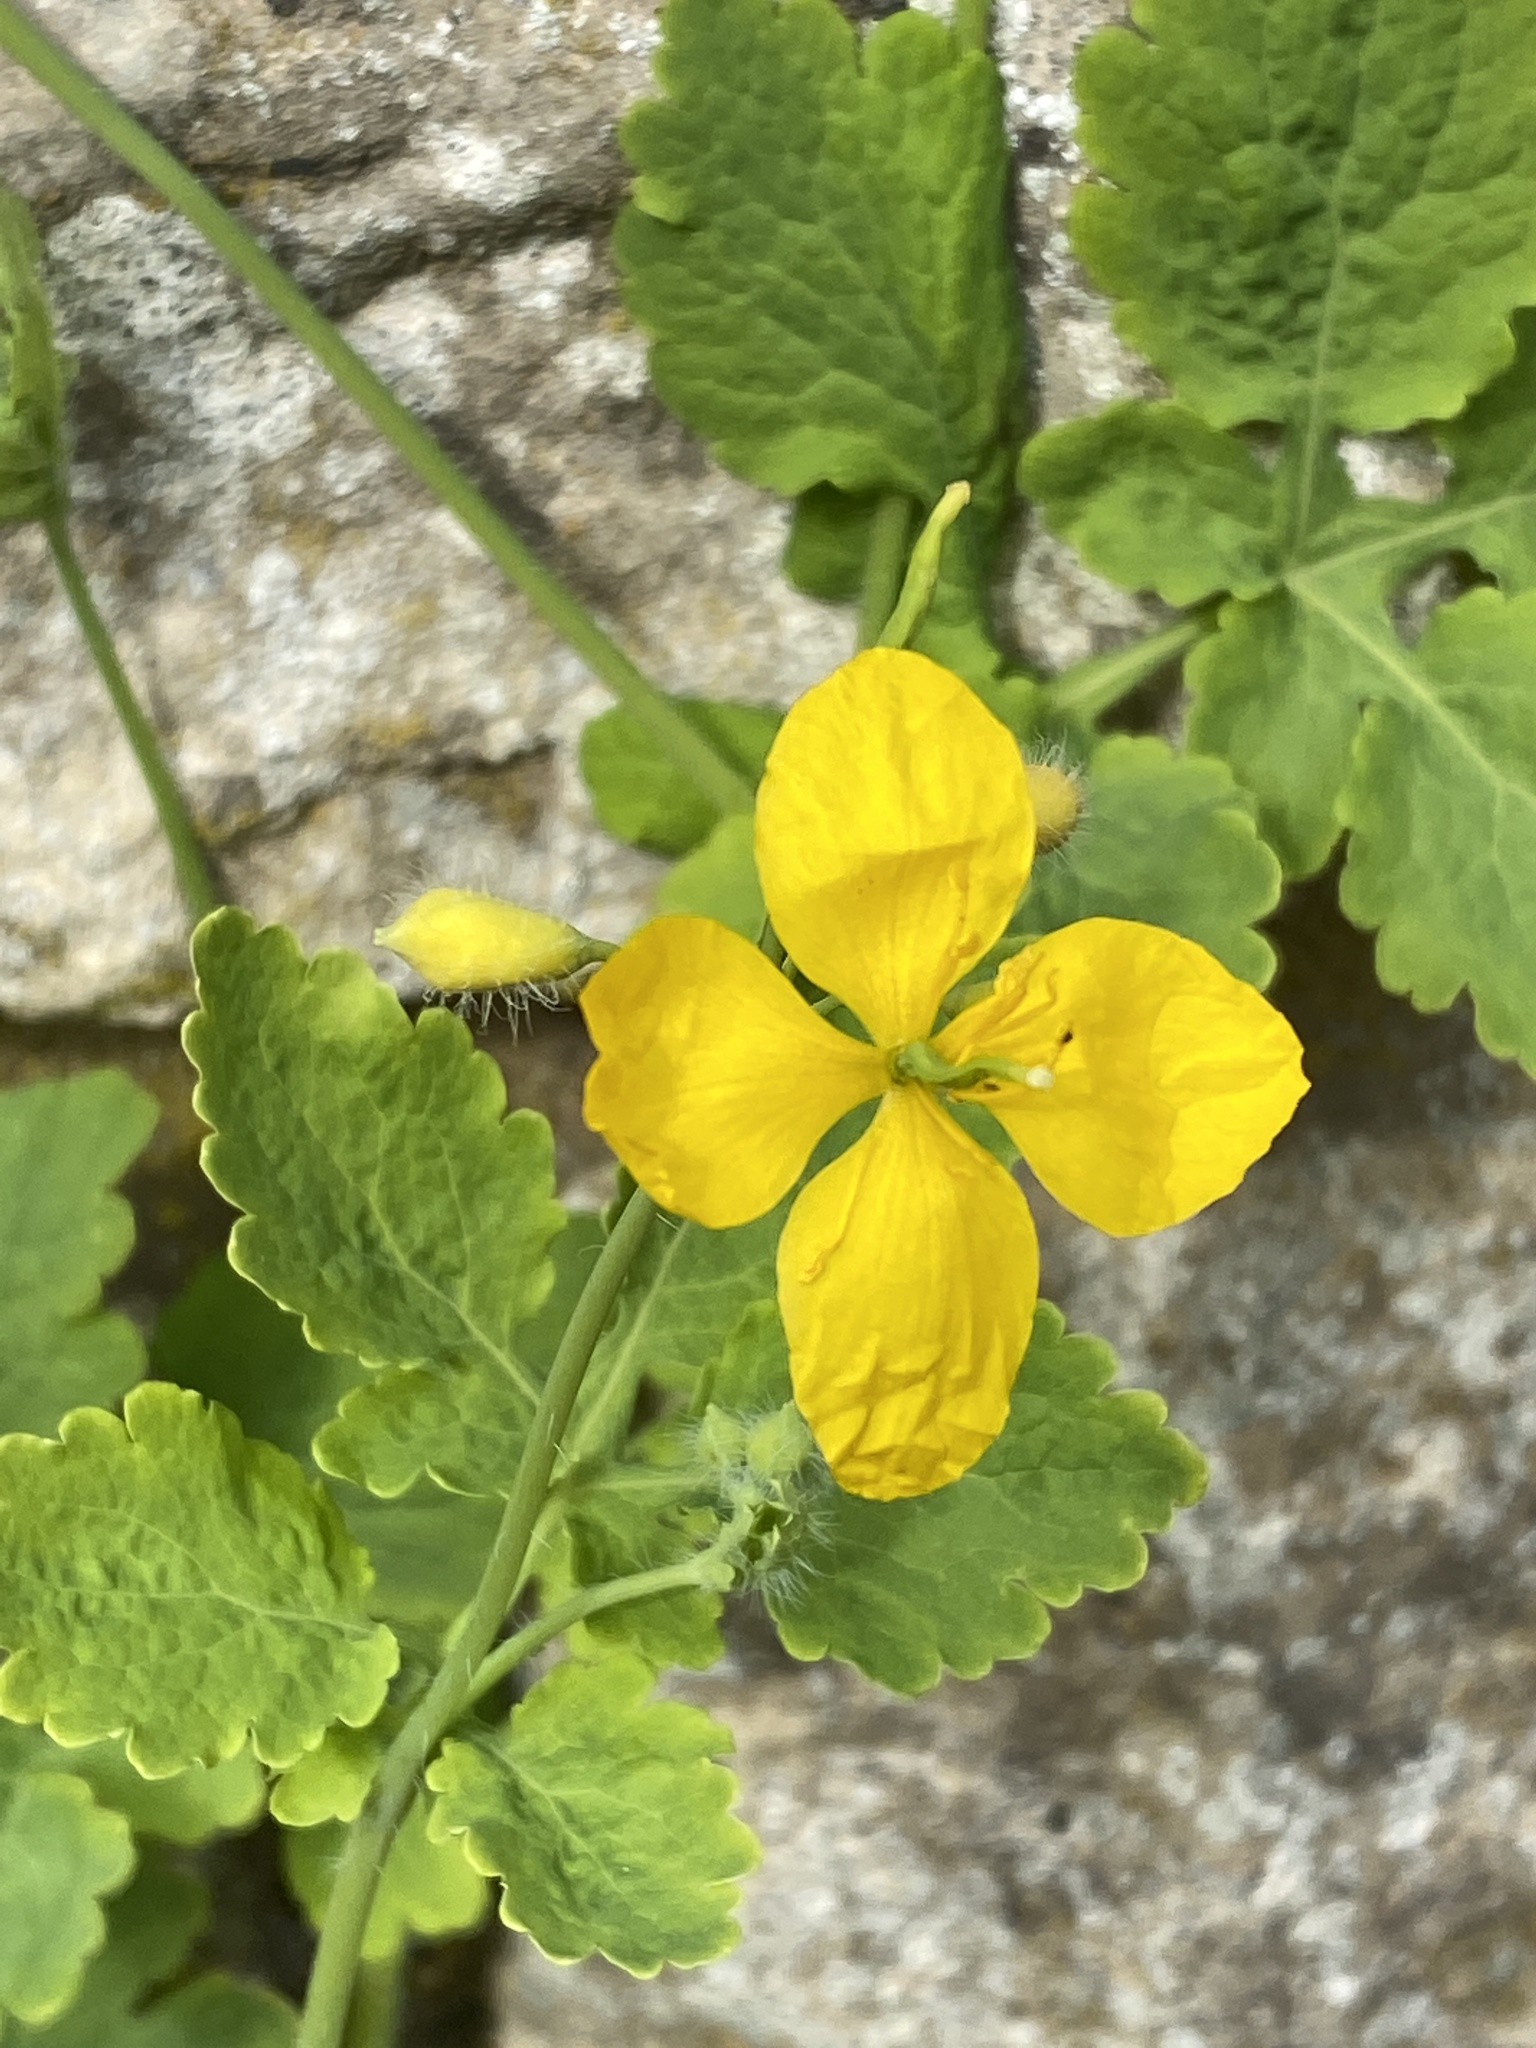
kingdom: Plantae
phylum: Tracheophyta
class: Magnoliopsida
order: Ranunculales
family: Papaveraceae
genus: Chelidonium
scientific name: Chelidonium majus
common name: Greater celandine
